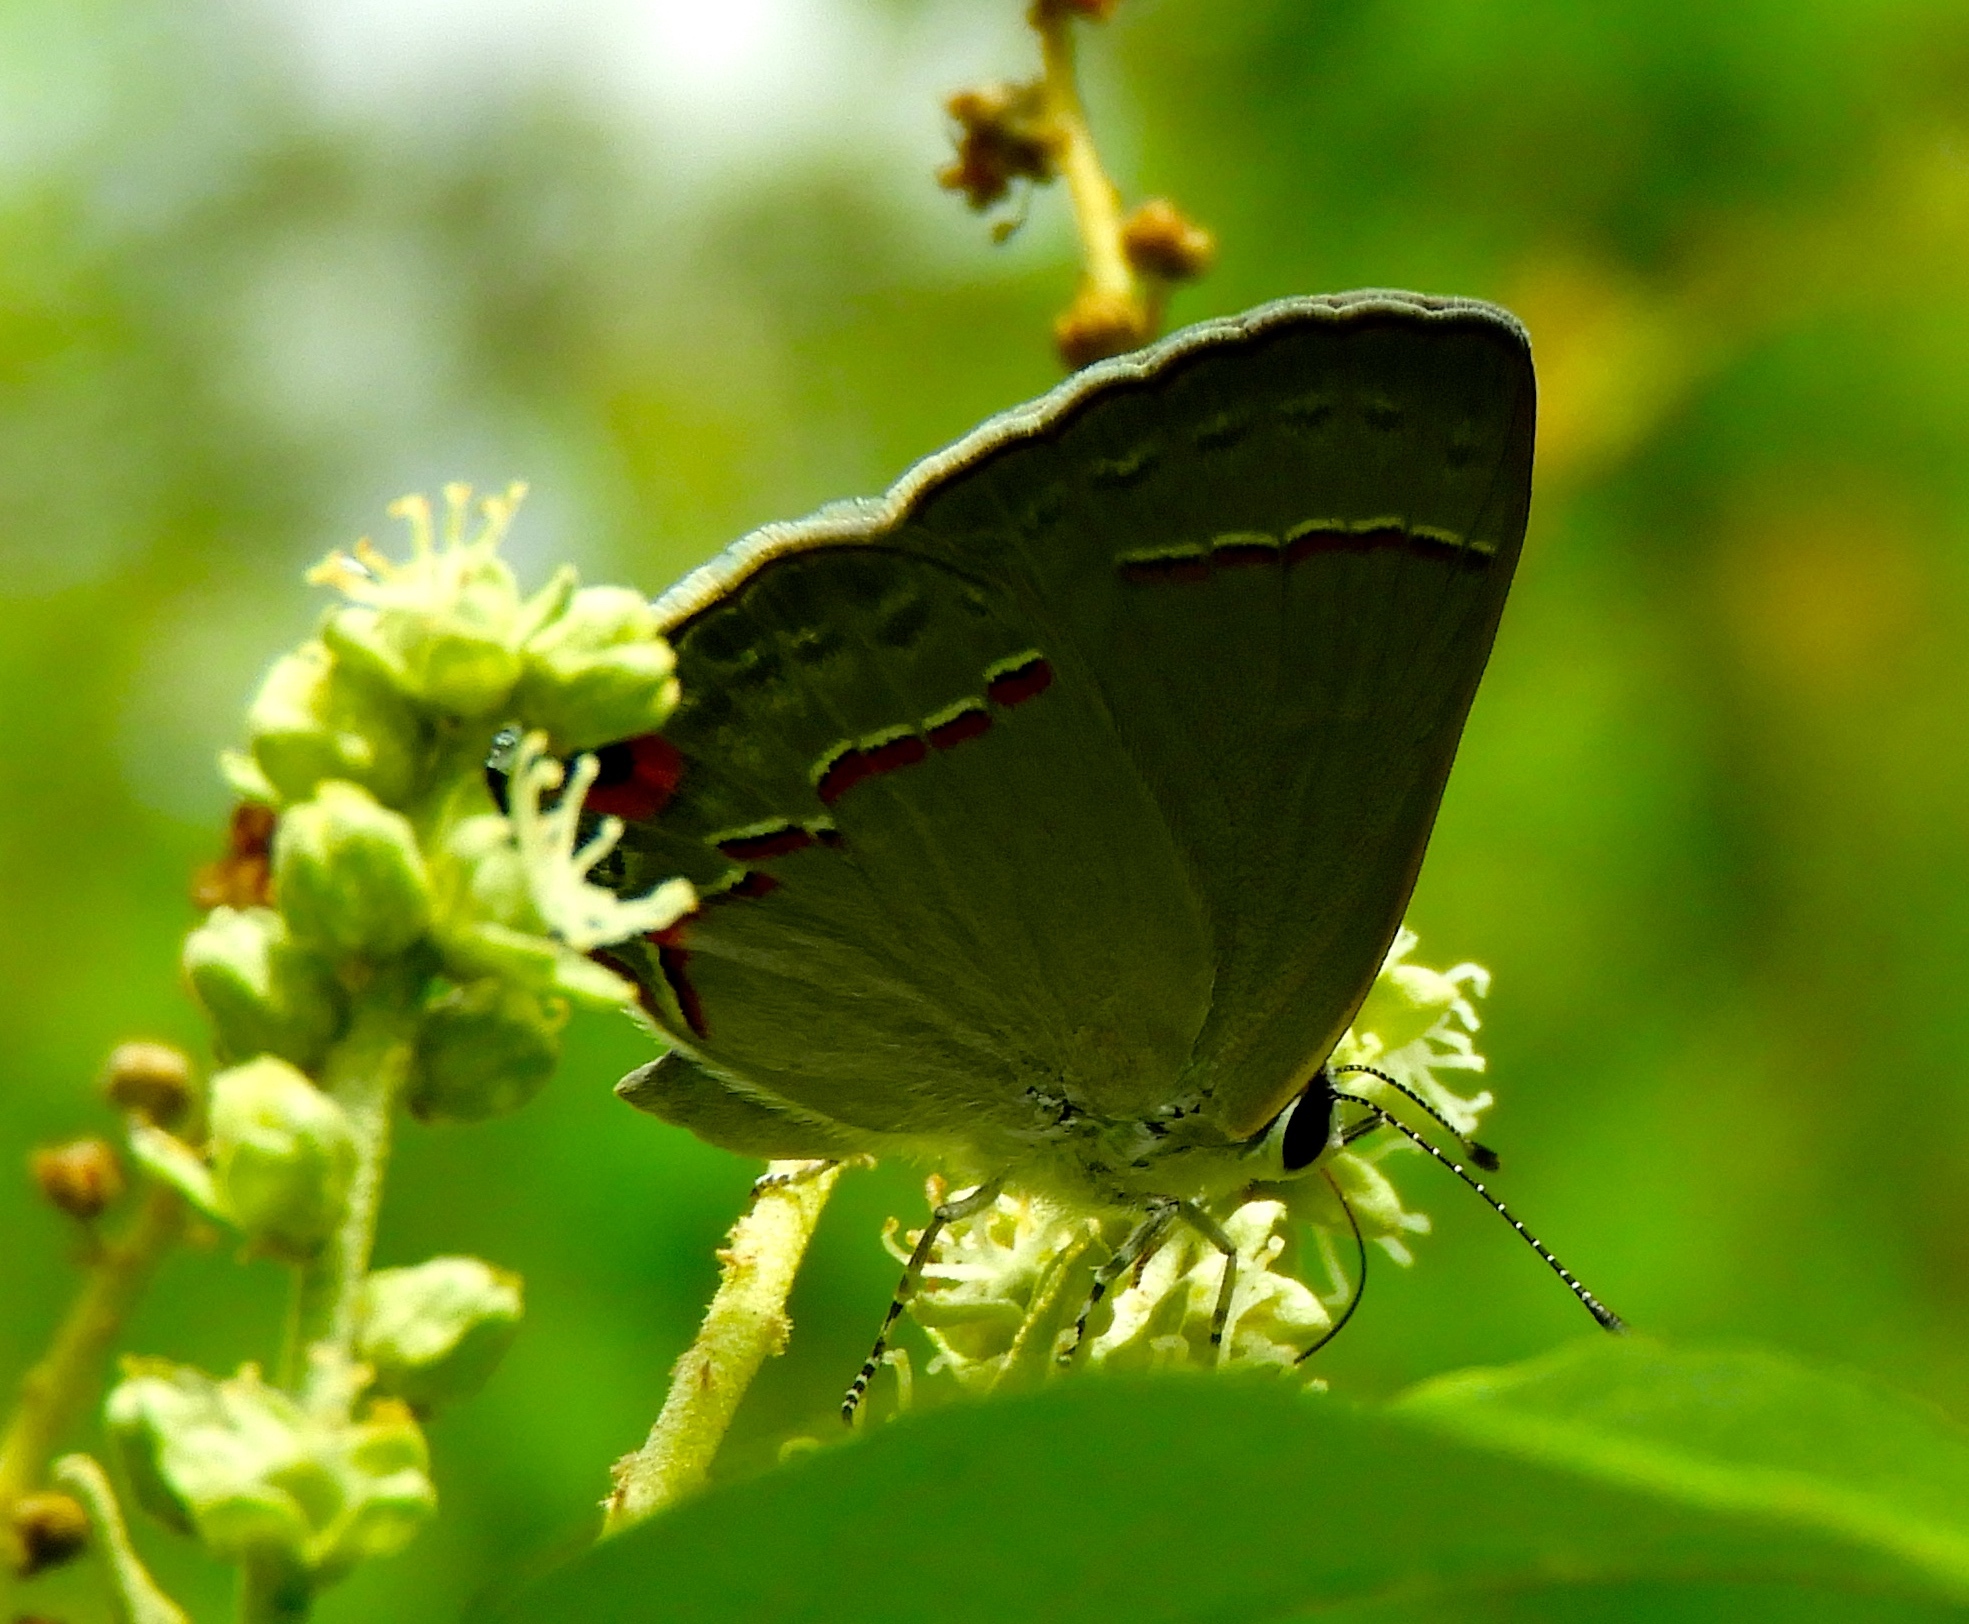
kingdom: Animalia
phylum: Arthropoda
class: Insecta
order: Lepidoptera
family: Lycaenidae
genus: Thecla
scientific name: Thecla bebrycia
